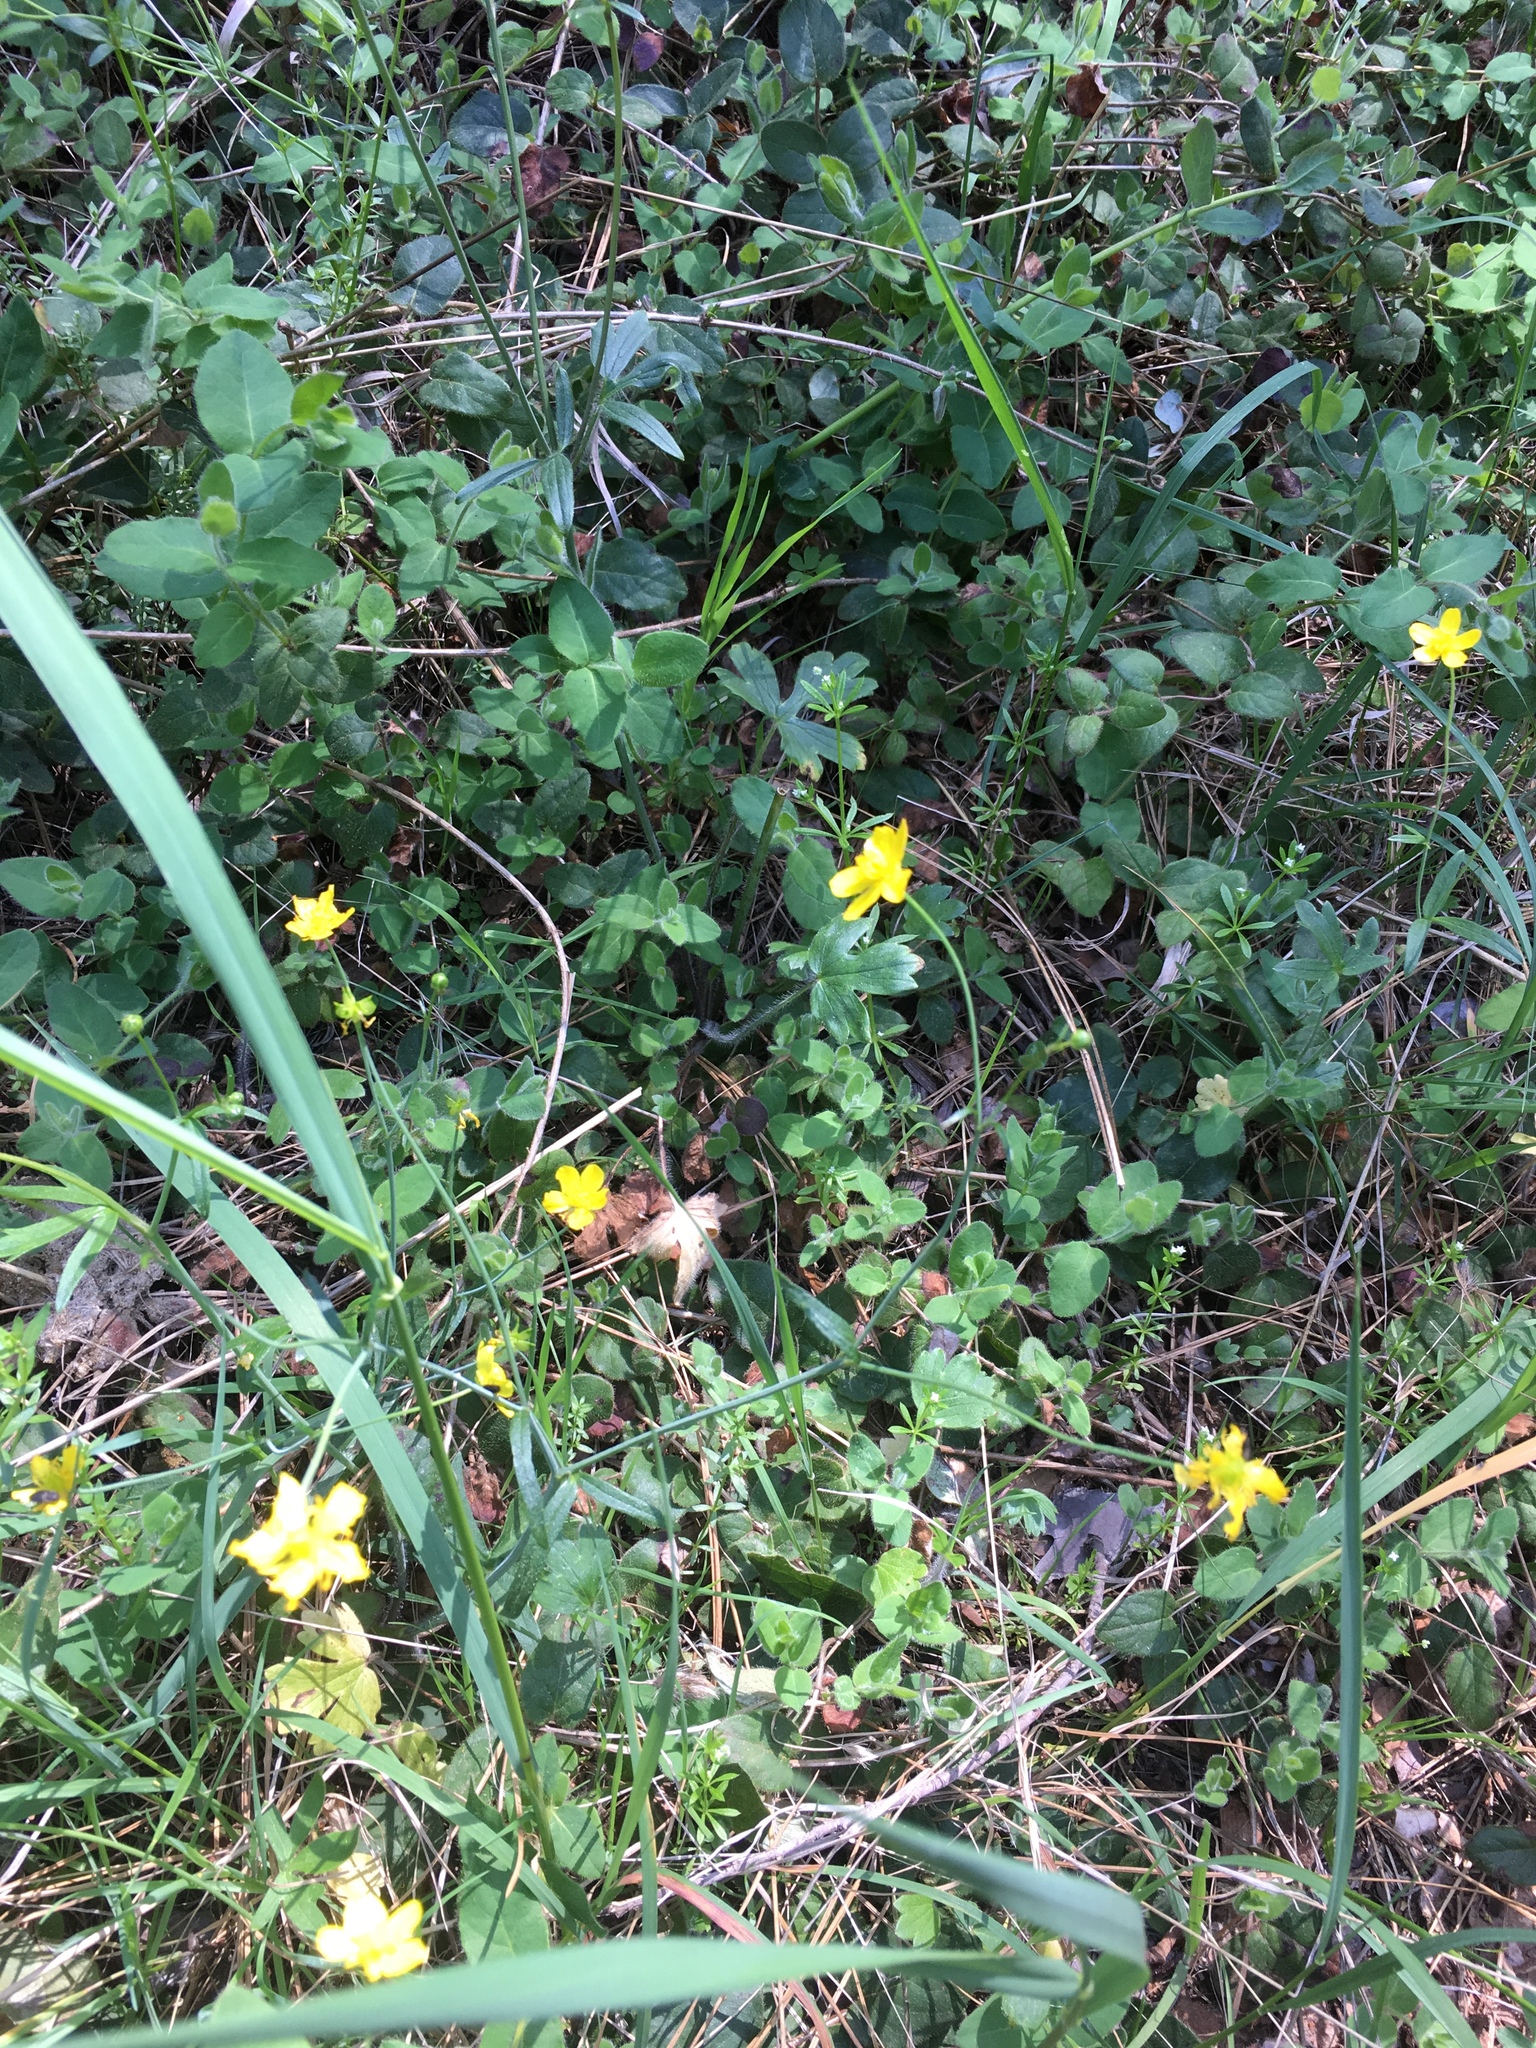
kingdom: Plantae
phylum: Tracheophyta
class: Magnoliopsida
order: Ranunculales
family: Ranunculaceae
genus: Ranunculus
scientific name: Ranunculus occidentalis
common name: Western buttercup
